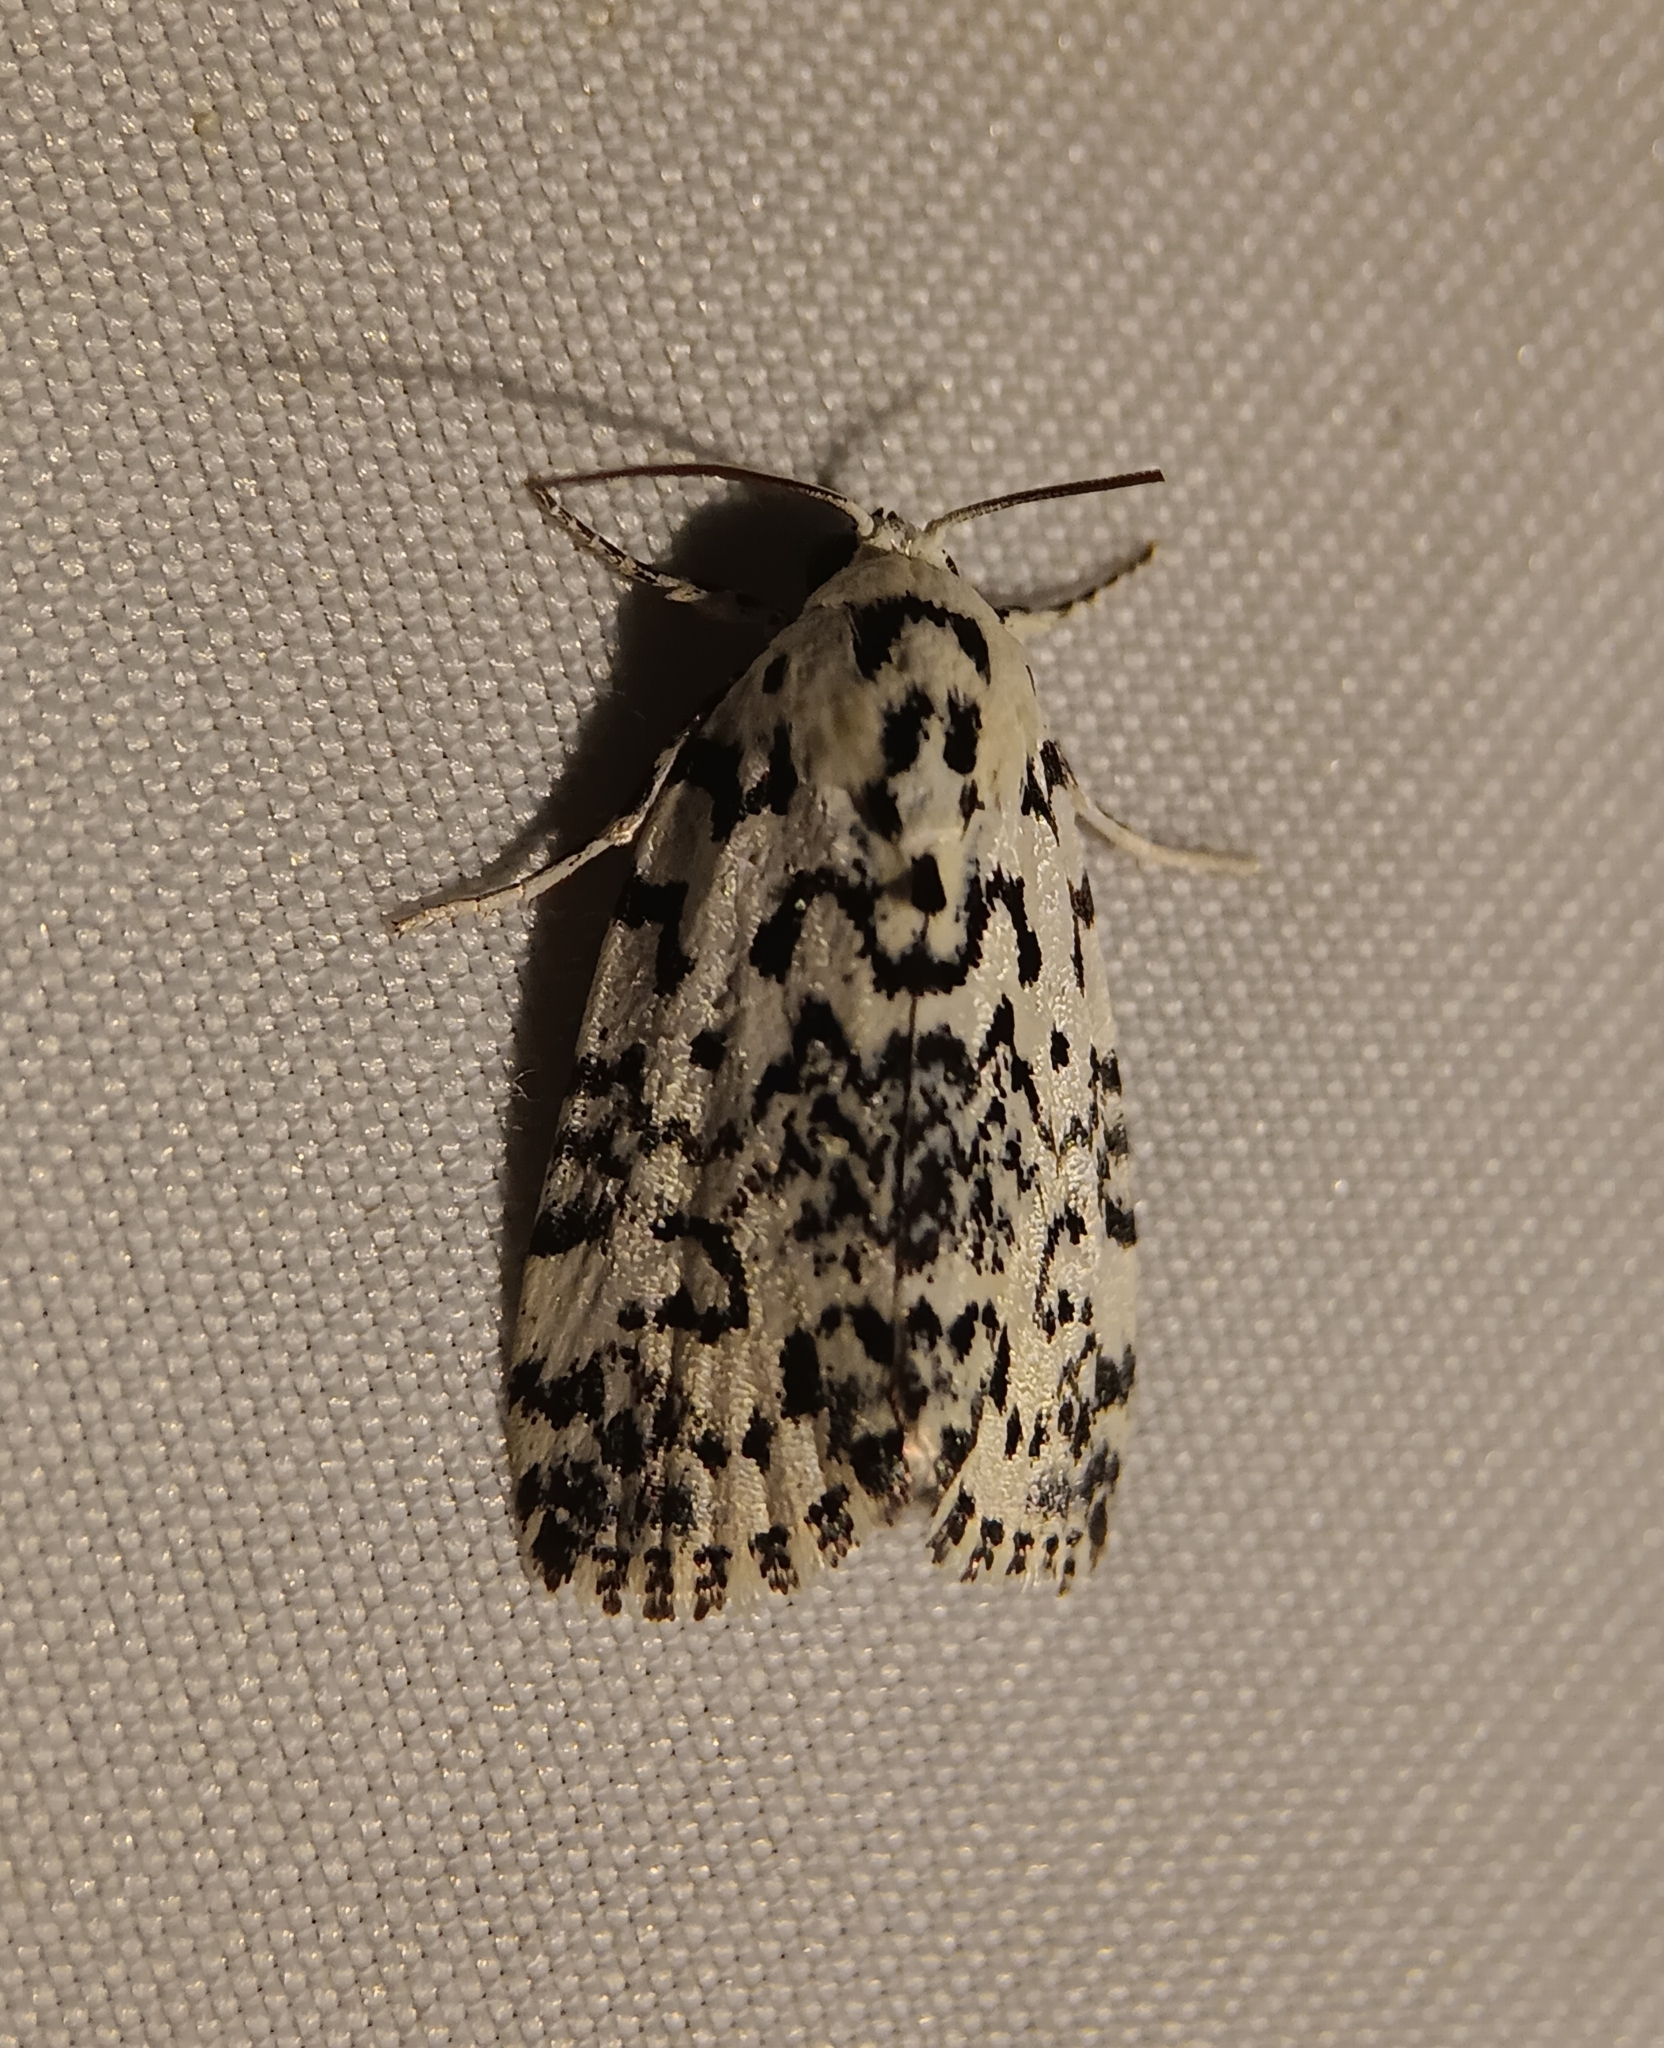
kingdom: Animalia
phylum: Arthropoda
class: Insecta
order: Lepidoptera
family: Noctuidae
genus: Polygrammate
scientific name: Polygrammate hebraeicum
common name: Hebrew moth
